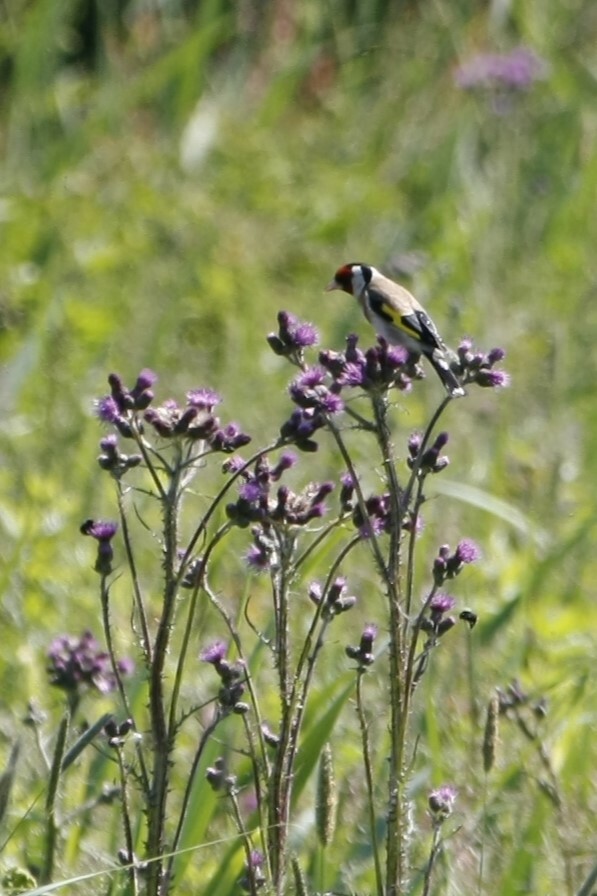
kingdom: Animalia
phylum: Chordata
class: Aves
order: Passeriformes
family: Fringillidae
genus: Carduelis
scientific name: Carduelis carduelis
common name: European goldfinch
